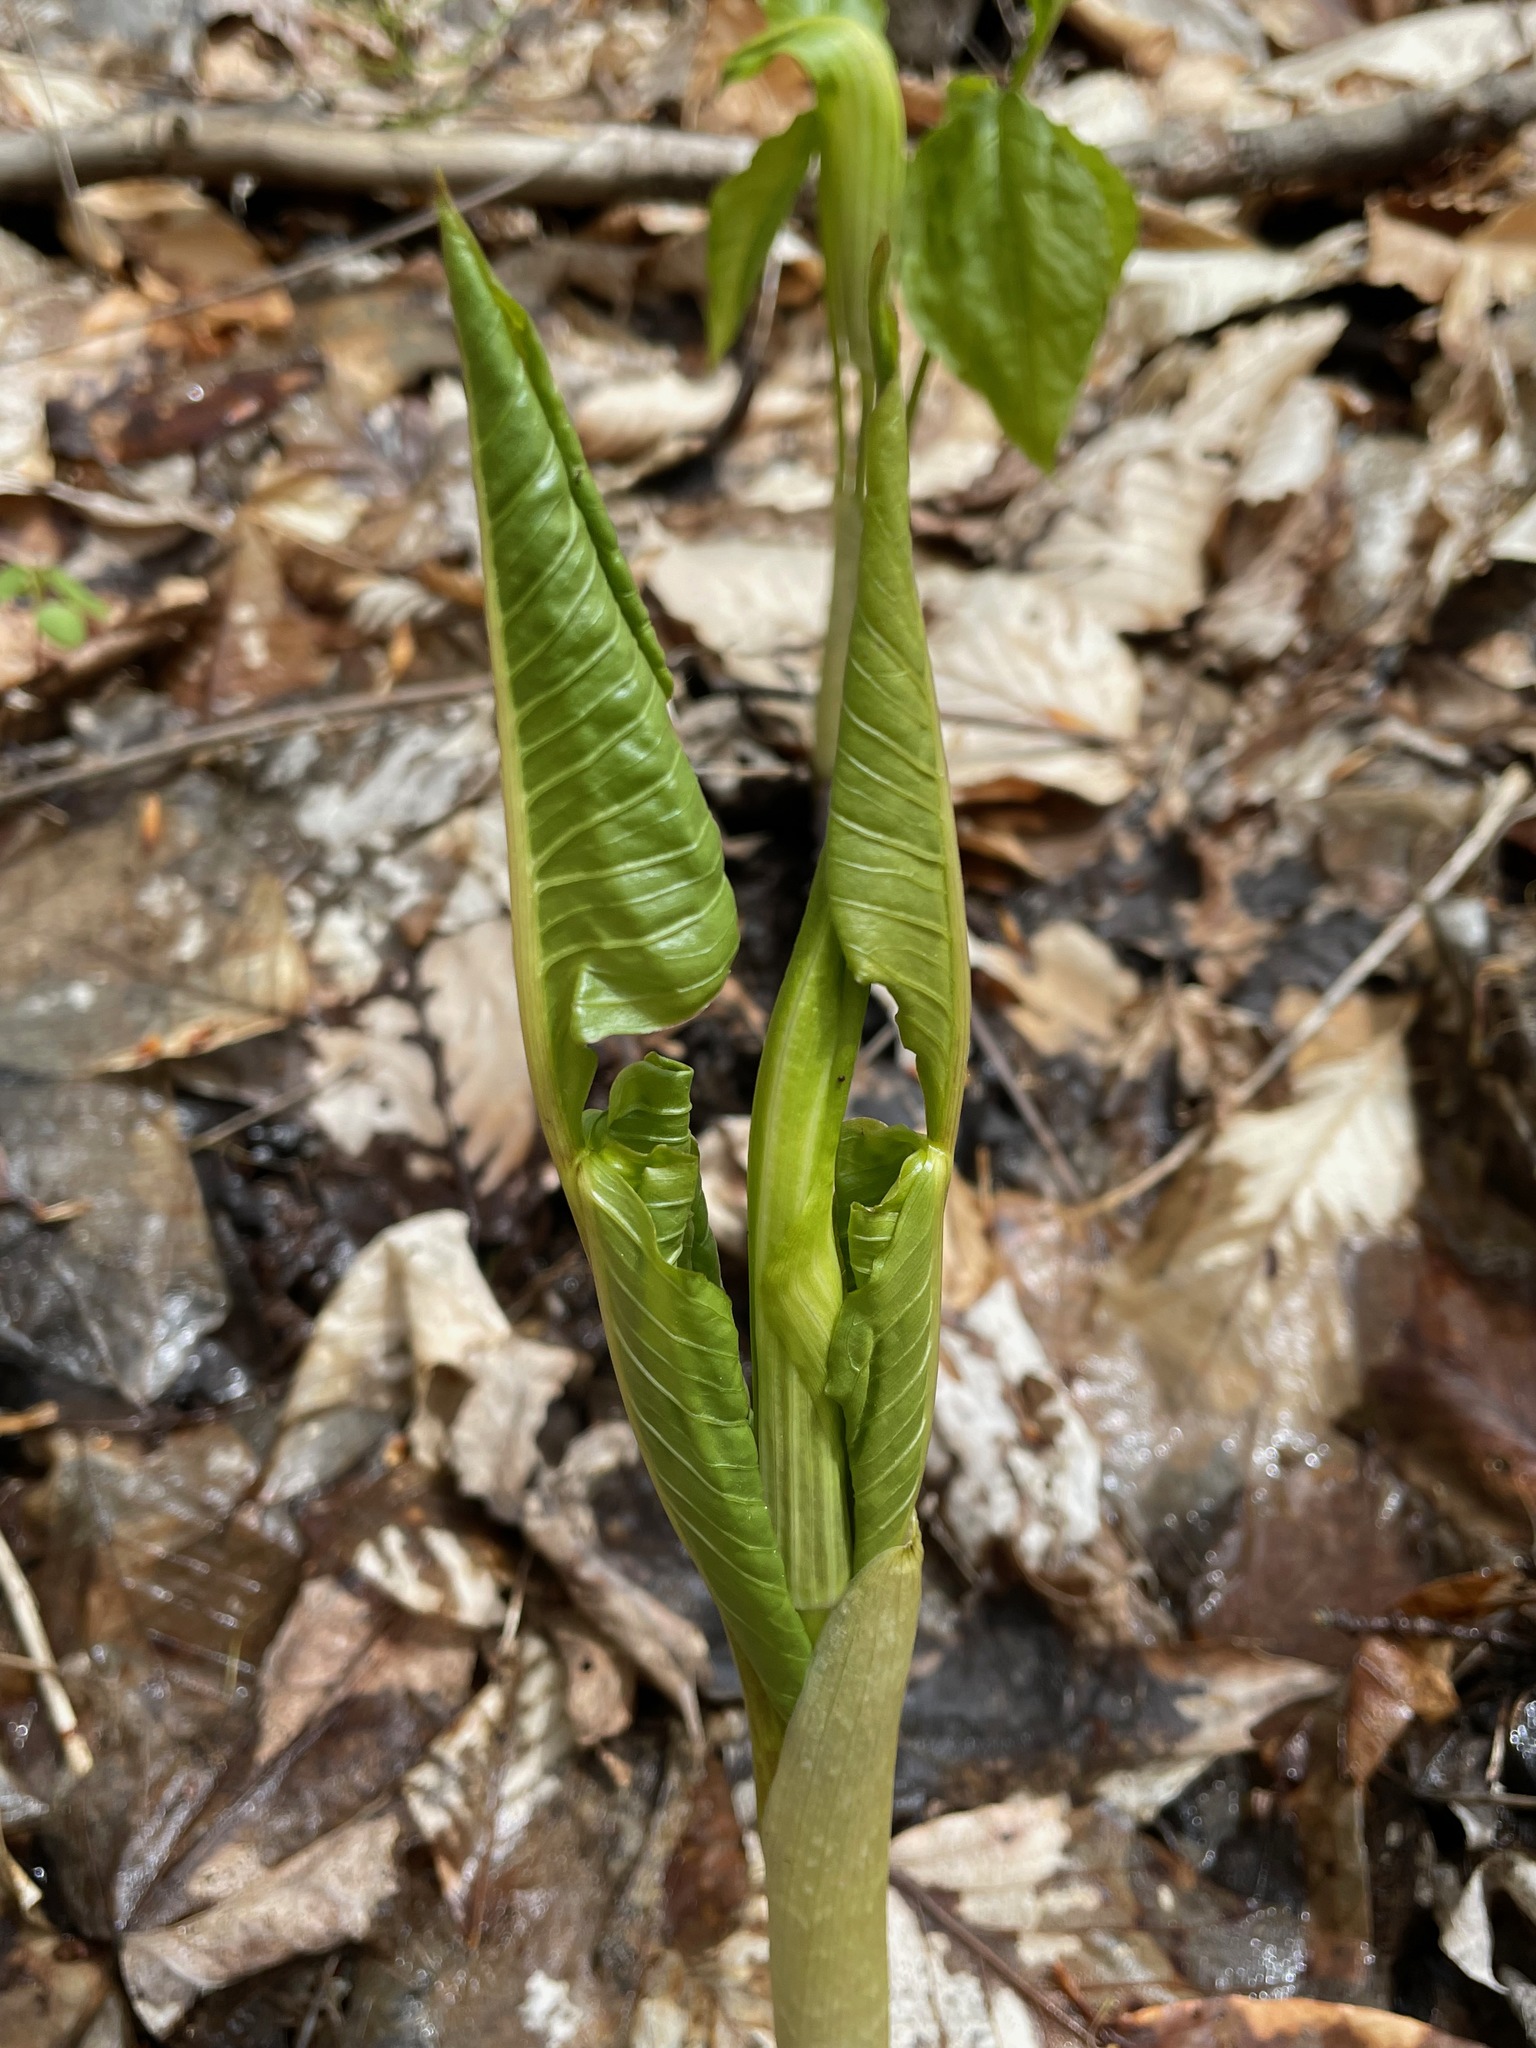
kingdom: Plantae
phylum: Tracheophyta
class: Liliopsida
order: Alismatales
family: Araceae
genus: Arisaema
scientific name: Arisaema triphyllum
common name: Jack-in-the-pulpit
